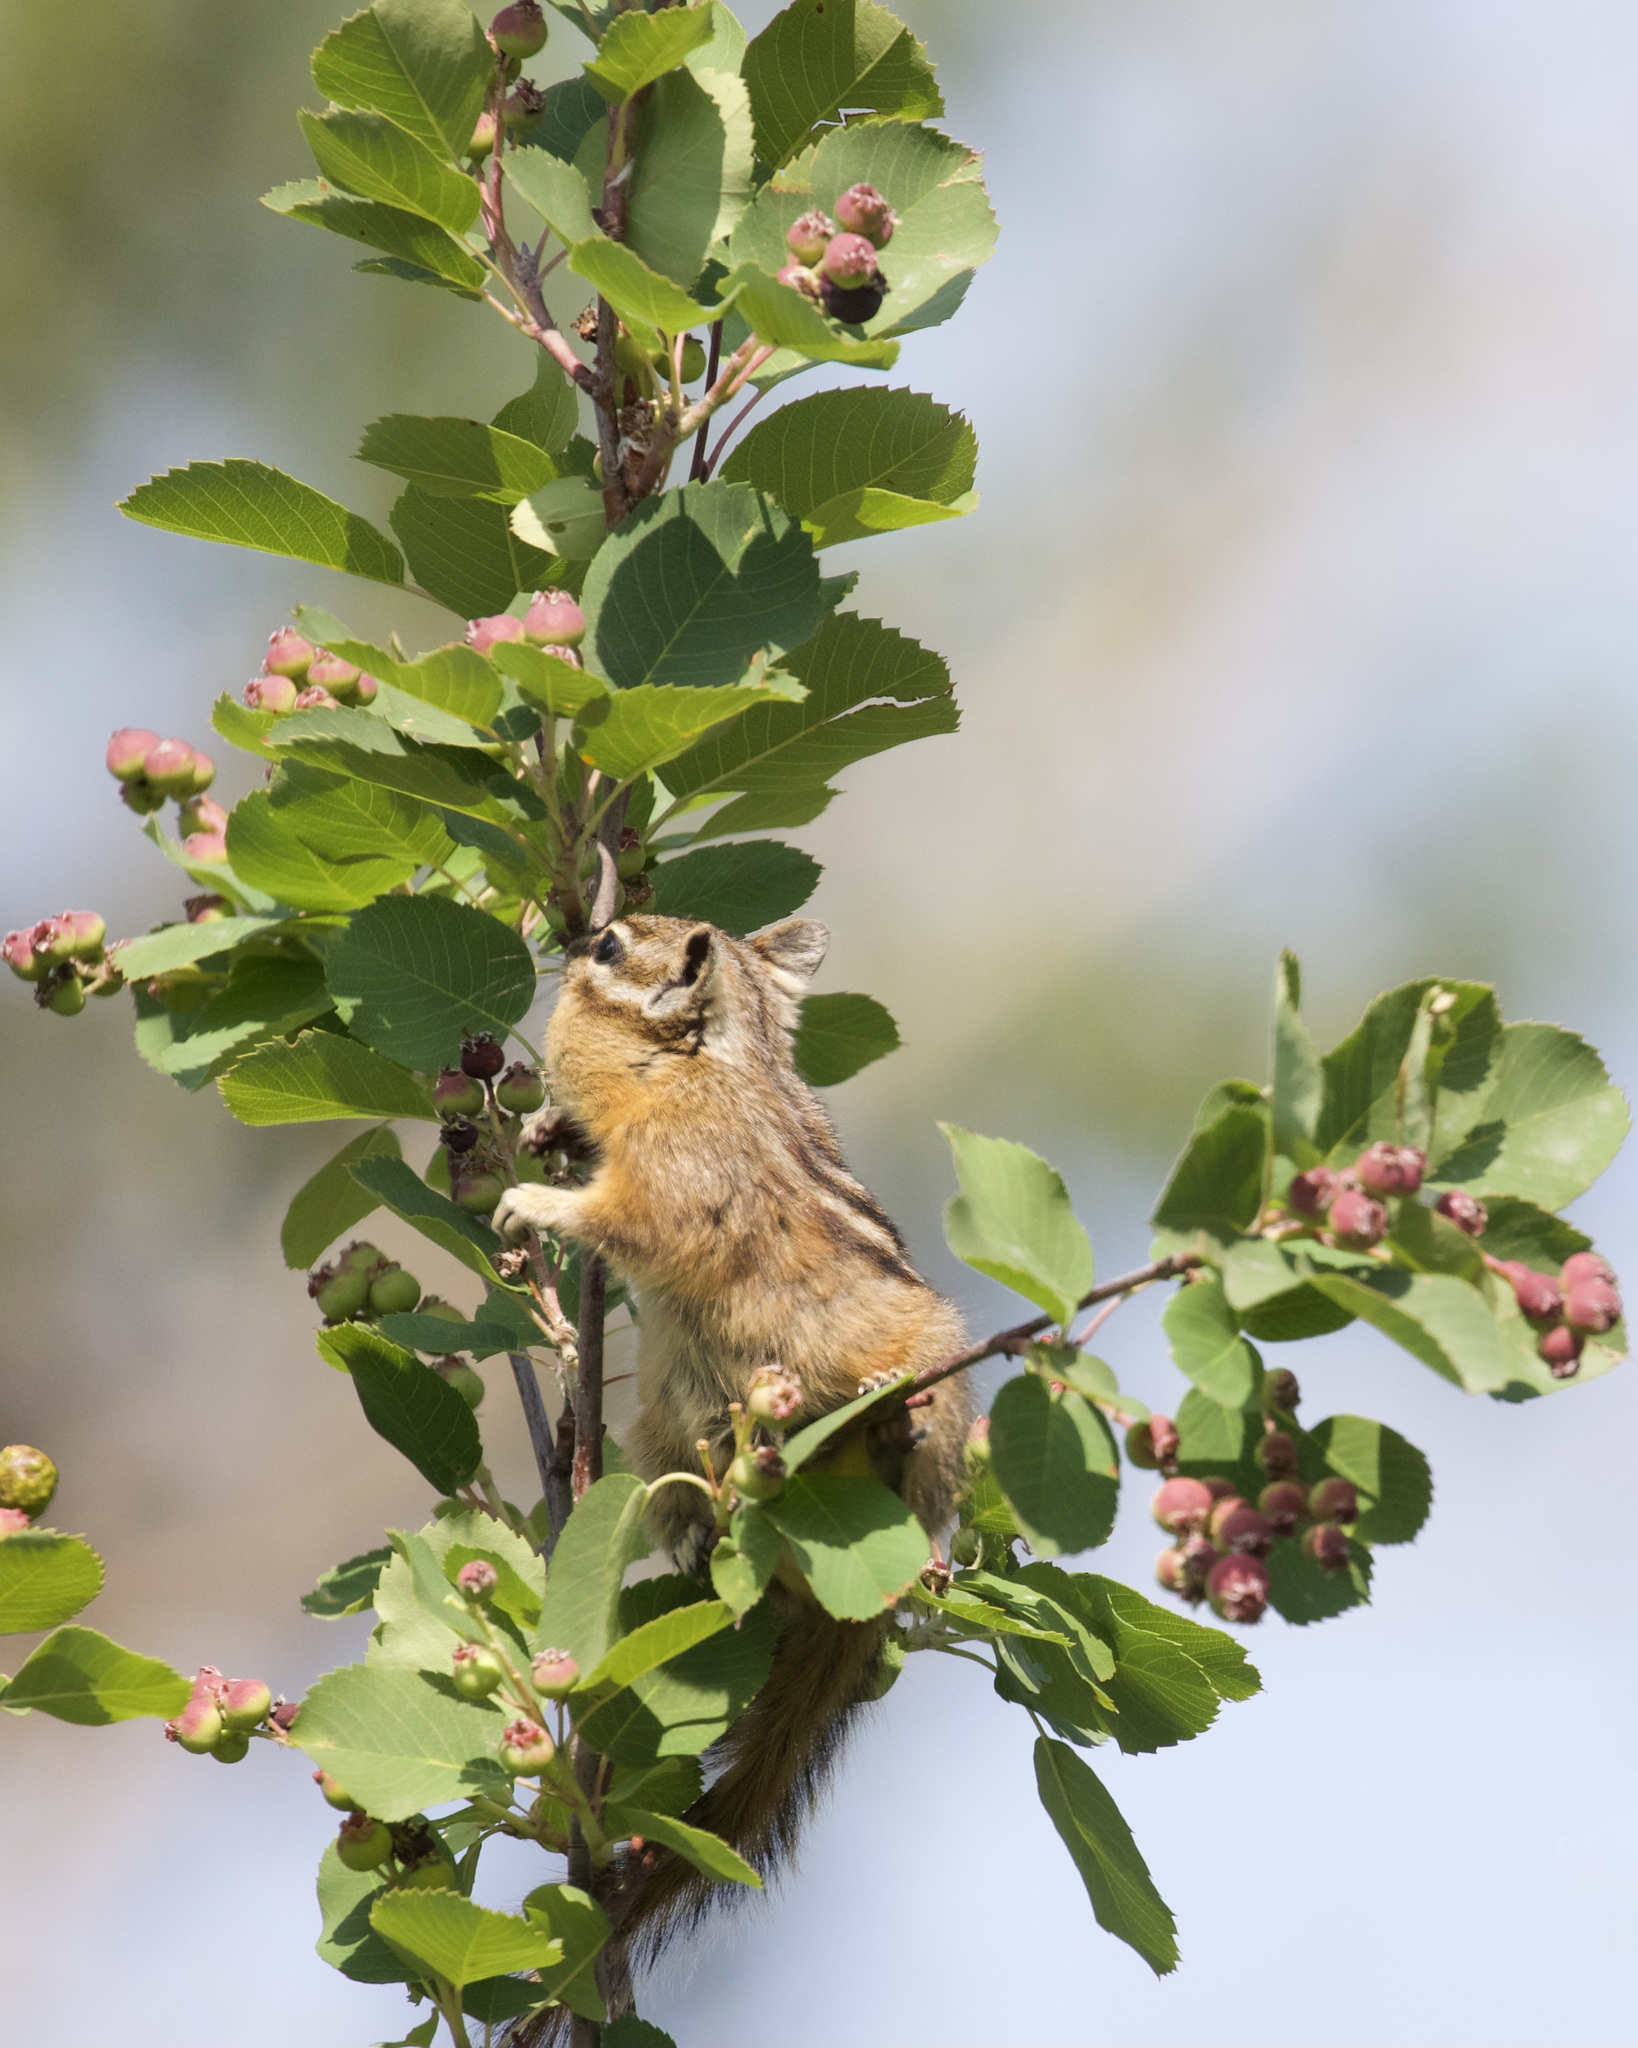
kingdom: Animalia
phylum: Chordata
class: Mammalia
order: Rodentia
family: Sciuridae
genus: Tamias
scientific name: Tamias amoenus
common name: Yellow-pine chipmunk
